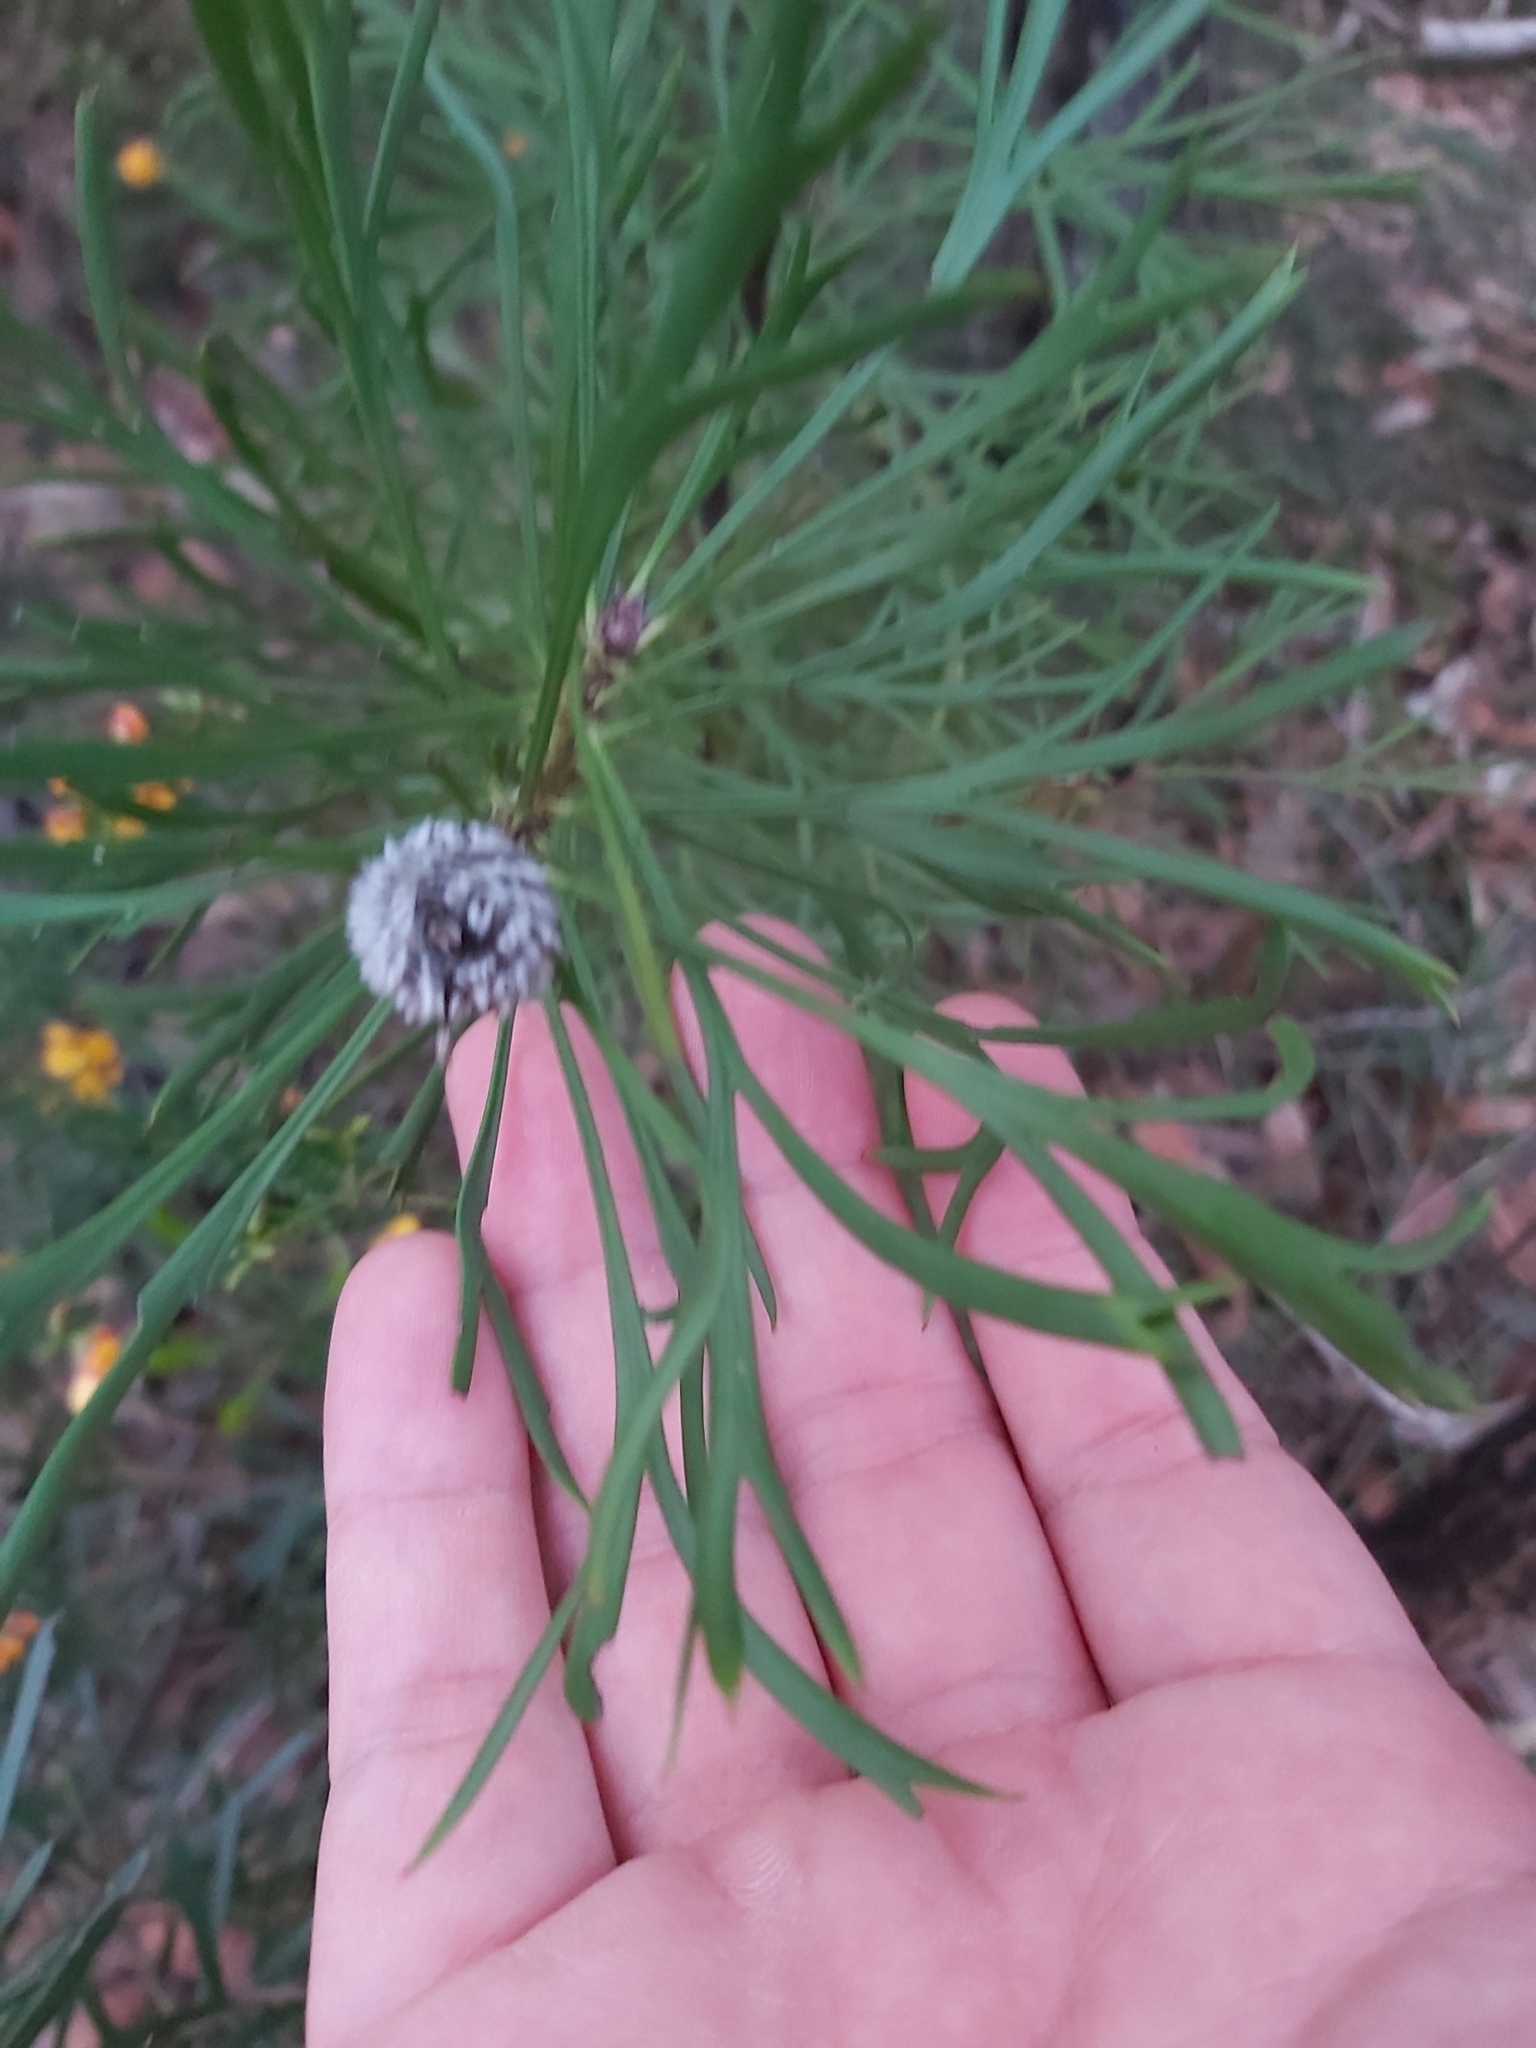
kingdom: Plantae
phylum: Tracheophyta
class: Magnoliopsida
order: Proteales
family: Proteaceae
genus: Isopogon
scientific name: Isopogon anemonifolius
